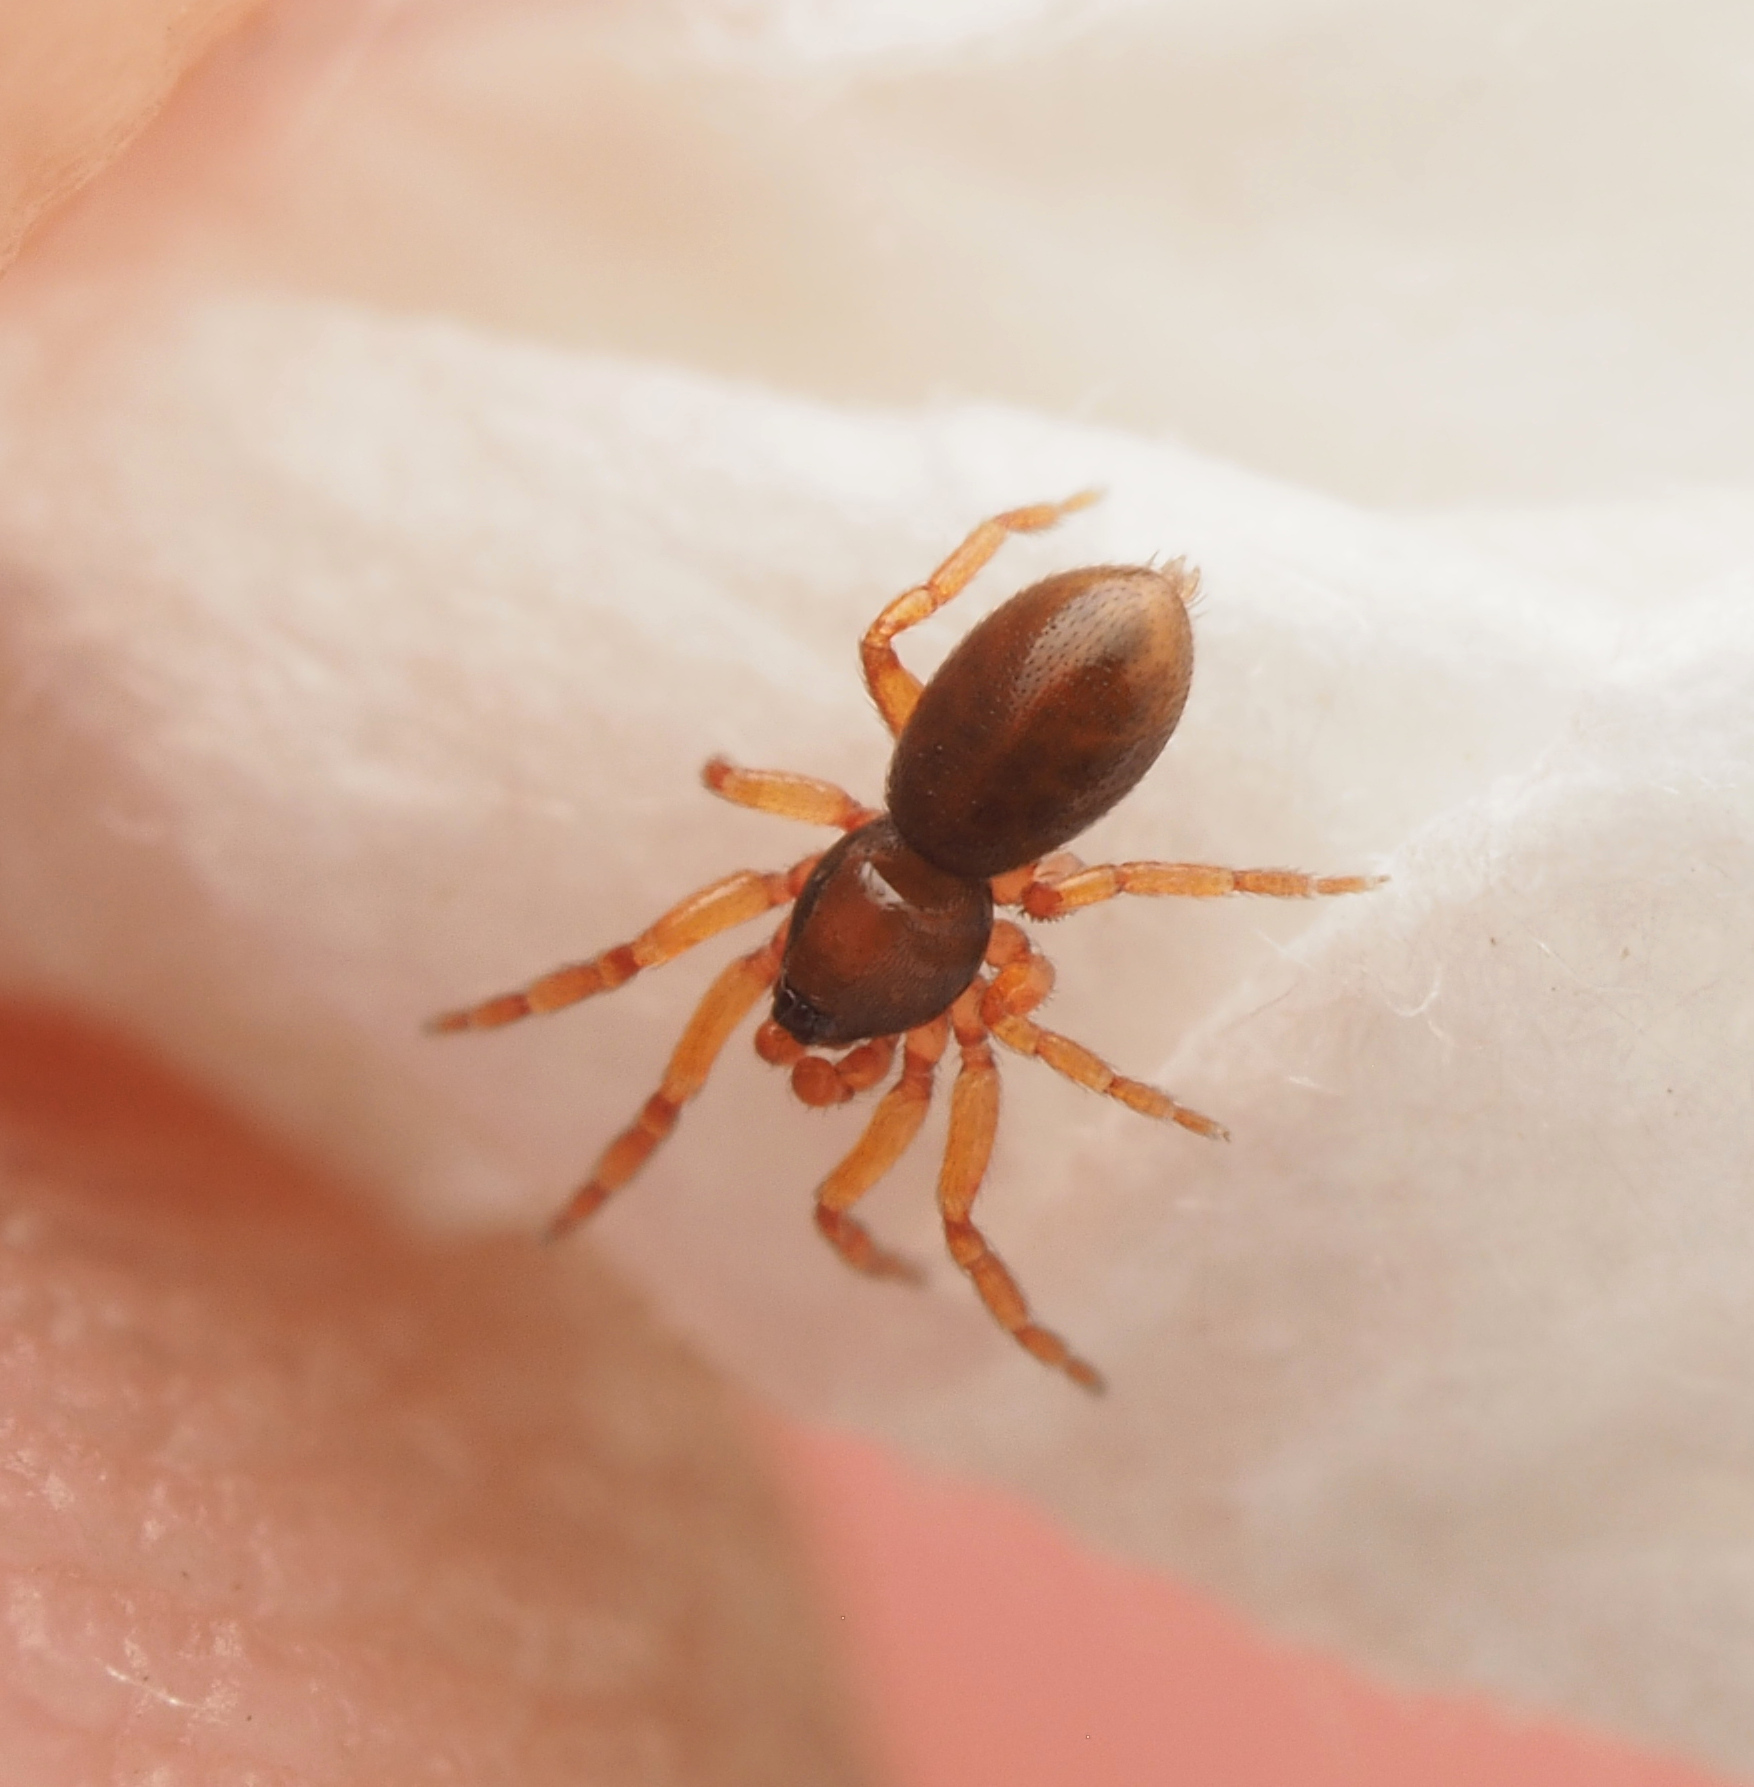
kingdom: Animalia
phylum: Arthropoda
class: Arachnida
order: Araneae
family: Oonopidae
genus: Opopaea
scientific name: Opopaea
